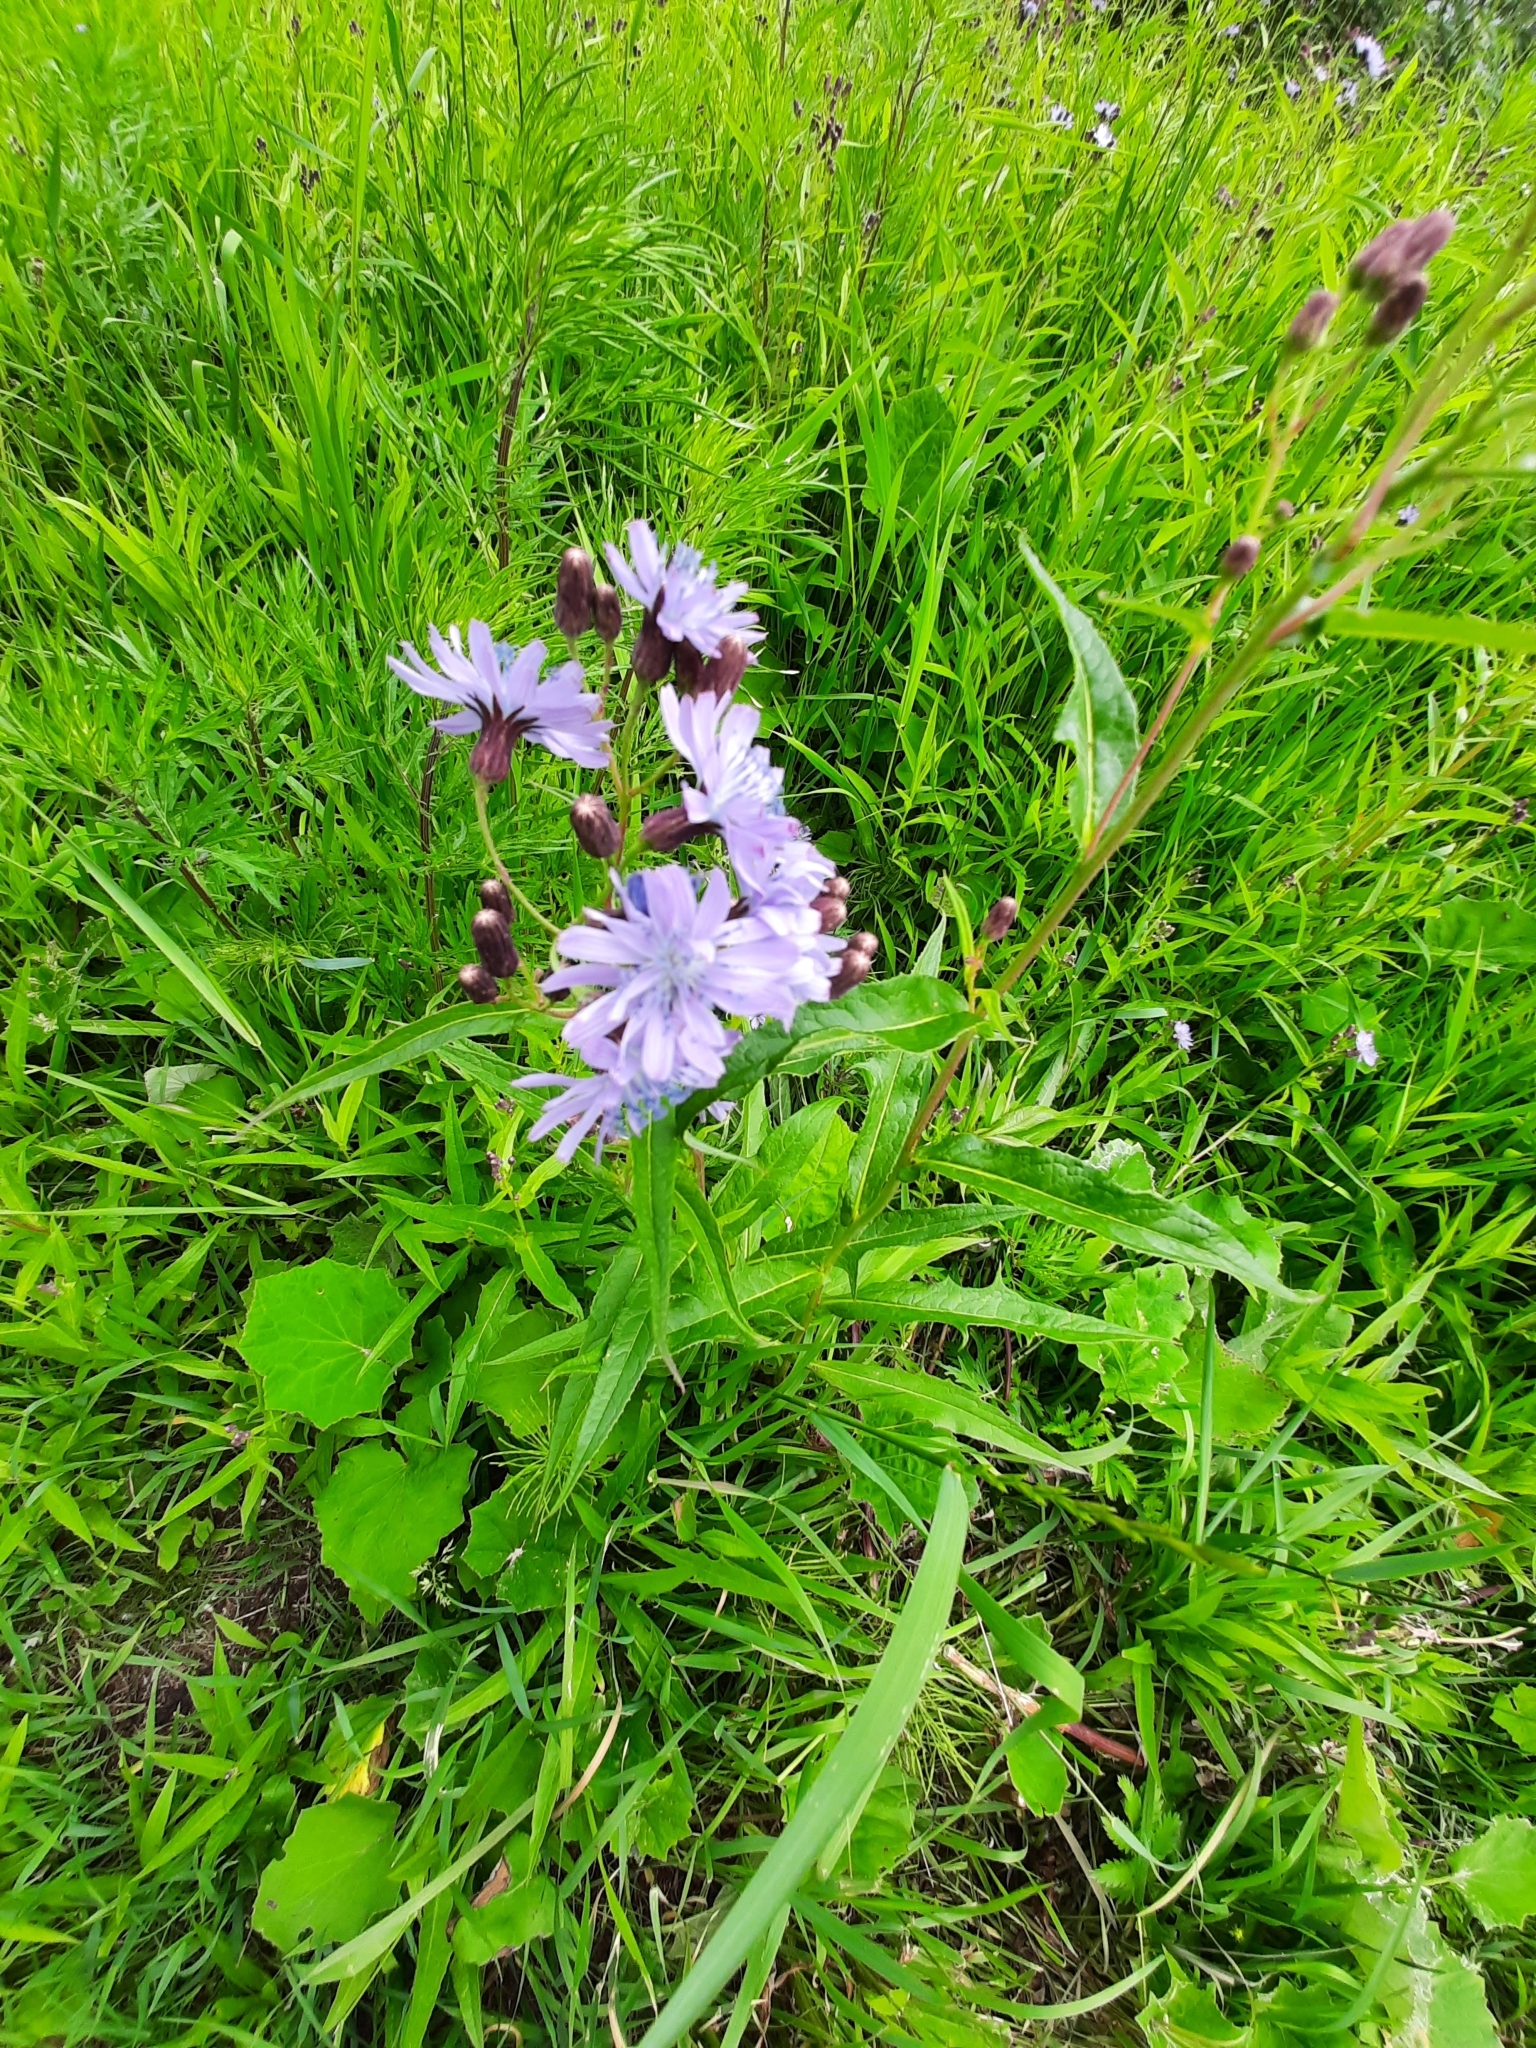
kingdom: Plantae
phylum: Tracheophyta
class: Magnoliopsida
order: Asterales
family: Asteraceae
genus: Lactuca
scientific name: Lactuca sibirica
